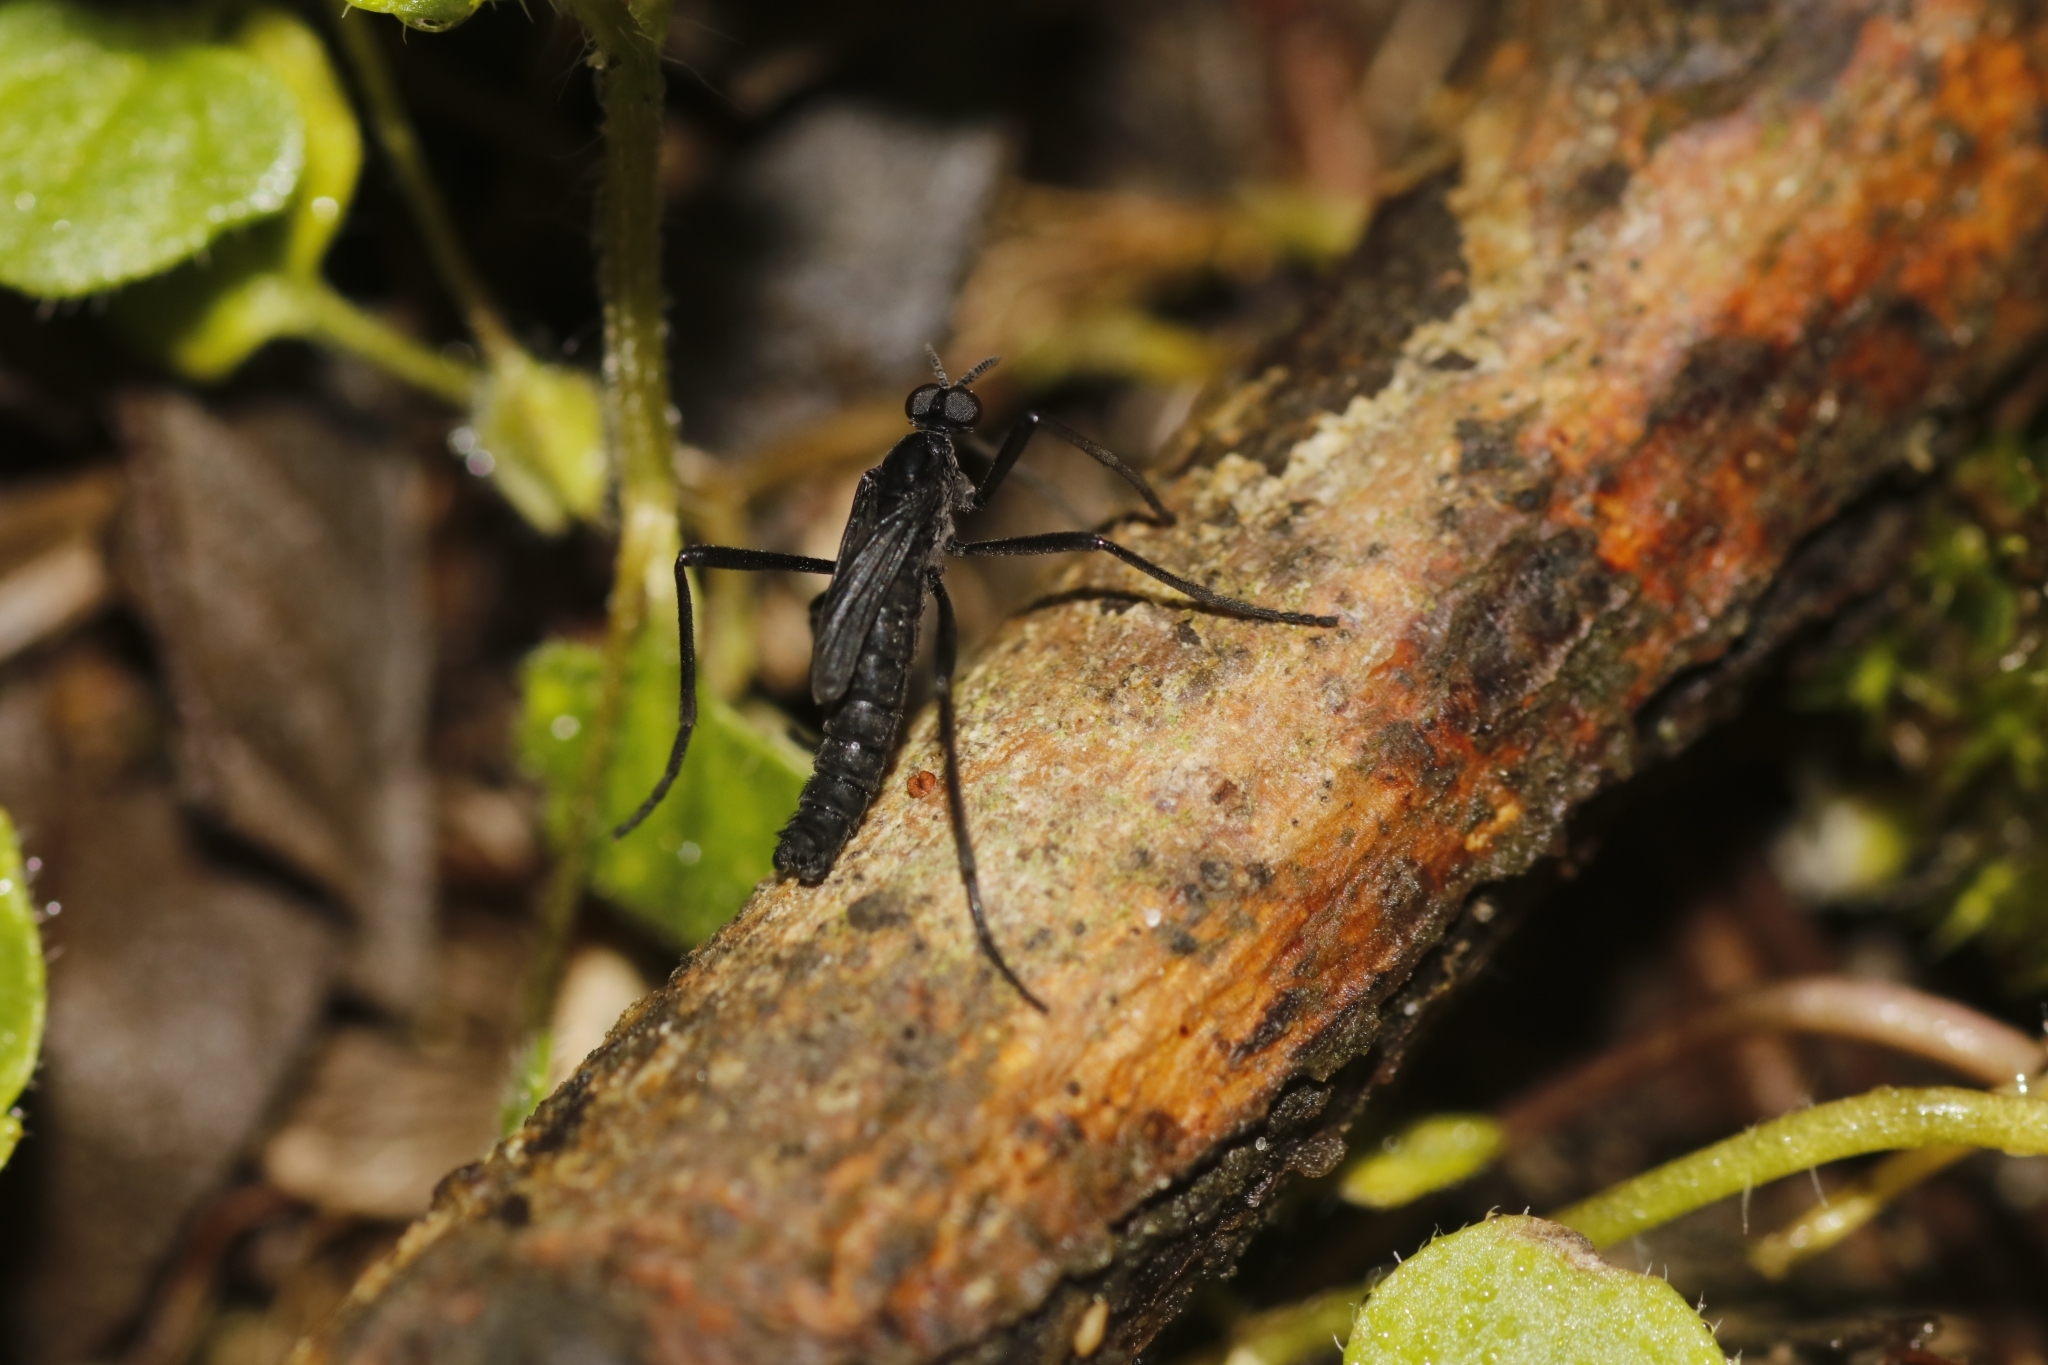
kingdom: Animalia
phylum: Arthropoda
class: Insecta
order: Diptera
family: Bibionidae
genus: Penthetria
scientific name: Penthetria funebris
